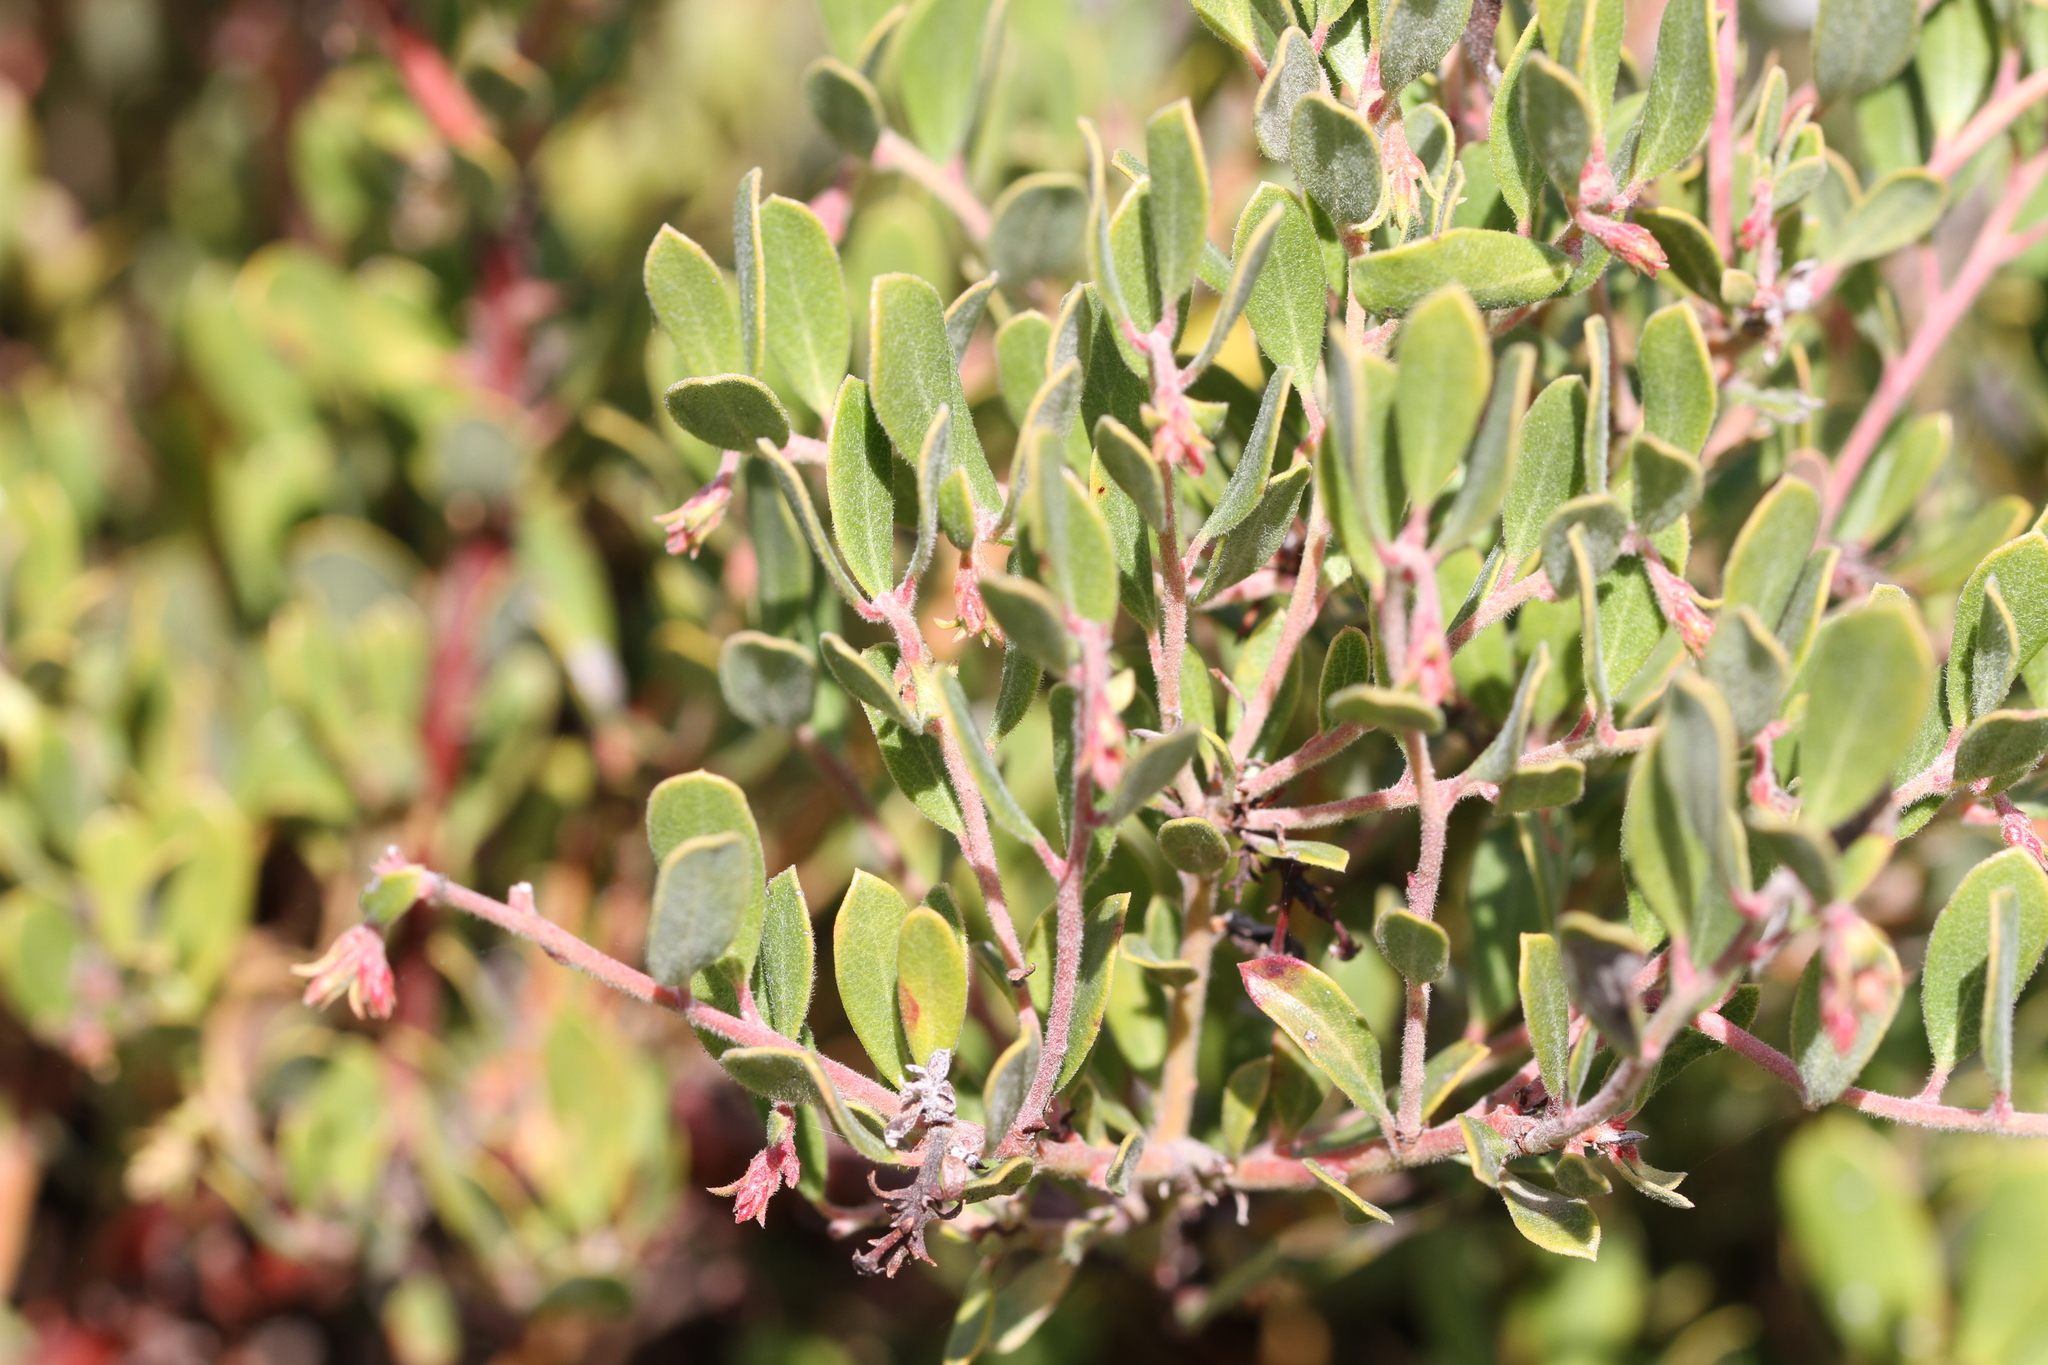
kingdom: Plantae
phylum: Tracheophyta
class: Magnoliopsida
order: Ericales
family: Ericaceae
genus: Arctostaphylos
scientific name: Arctostaphylos pumila
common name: Sandmat manzanita
